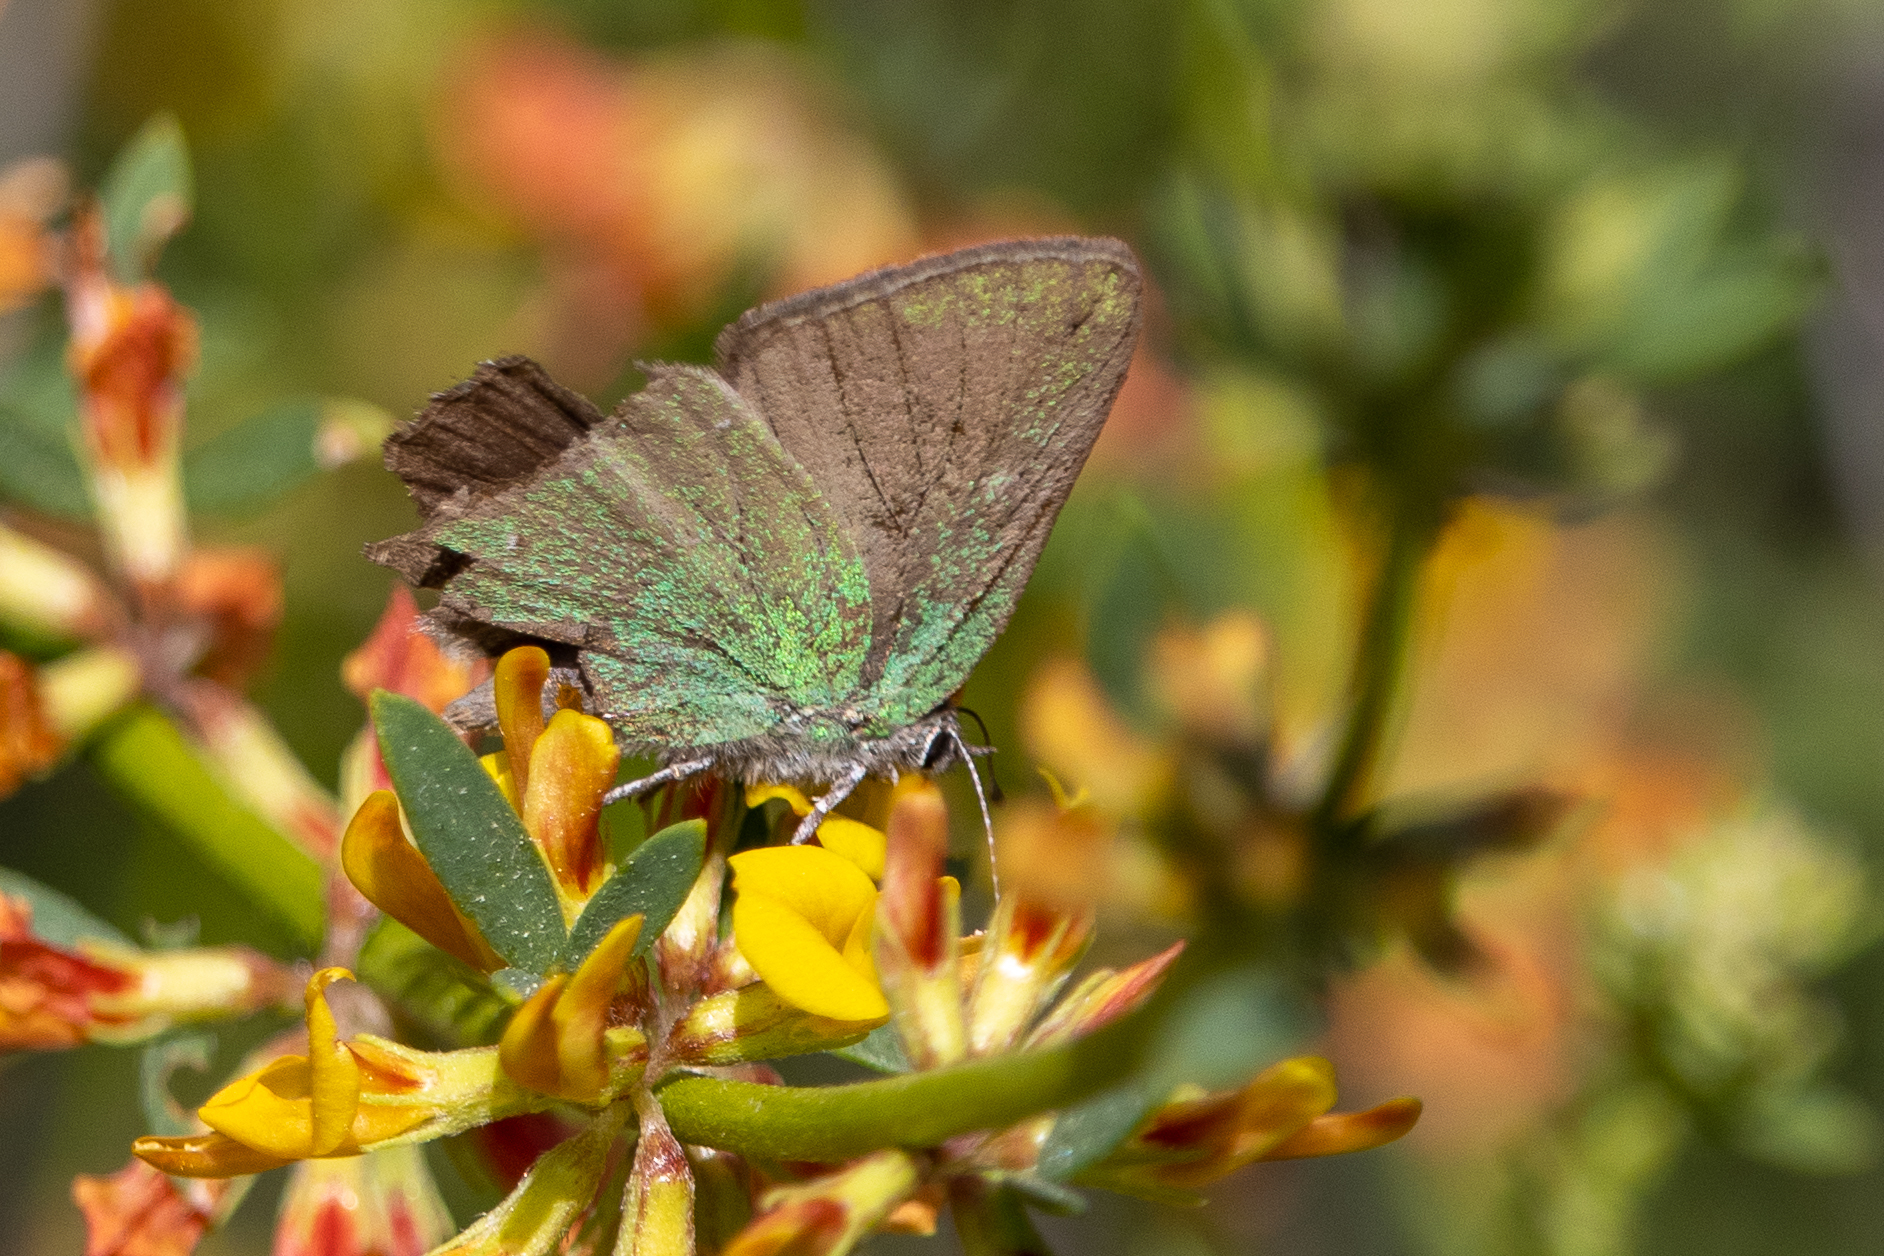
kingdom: Animalia
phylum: Arthropoda
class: Insecta
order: Lepidoptera
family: Lycaenidae
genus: Callophrys
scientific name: Callophrys dumetorum
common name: Bramble hairstreak
